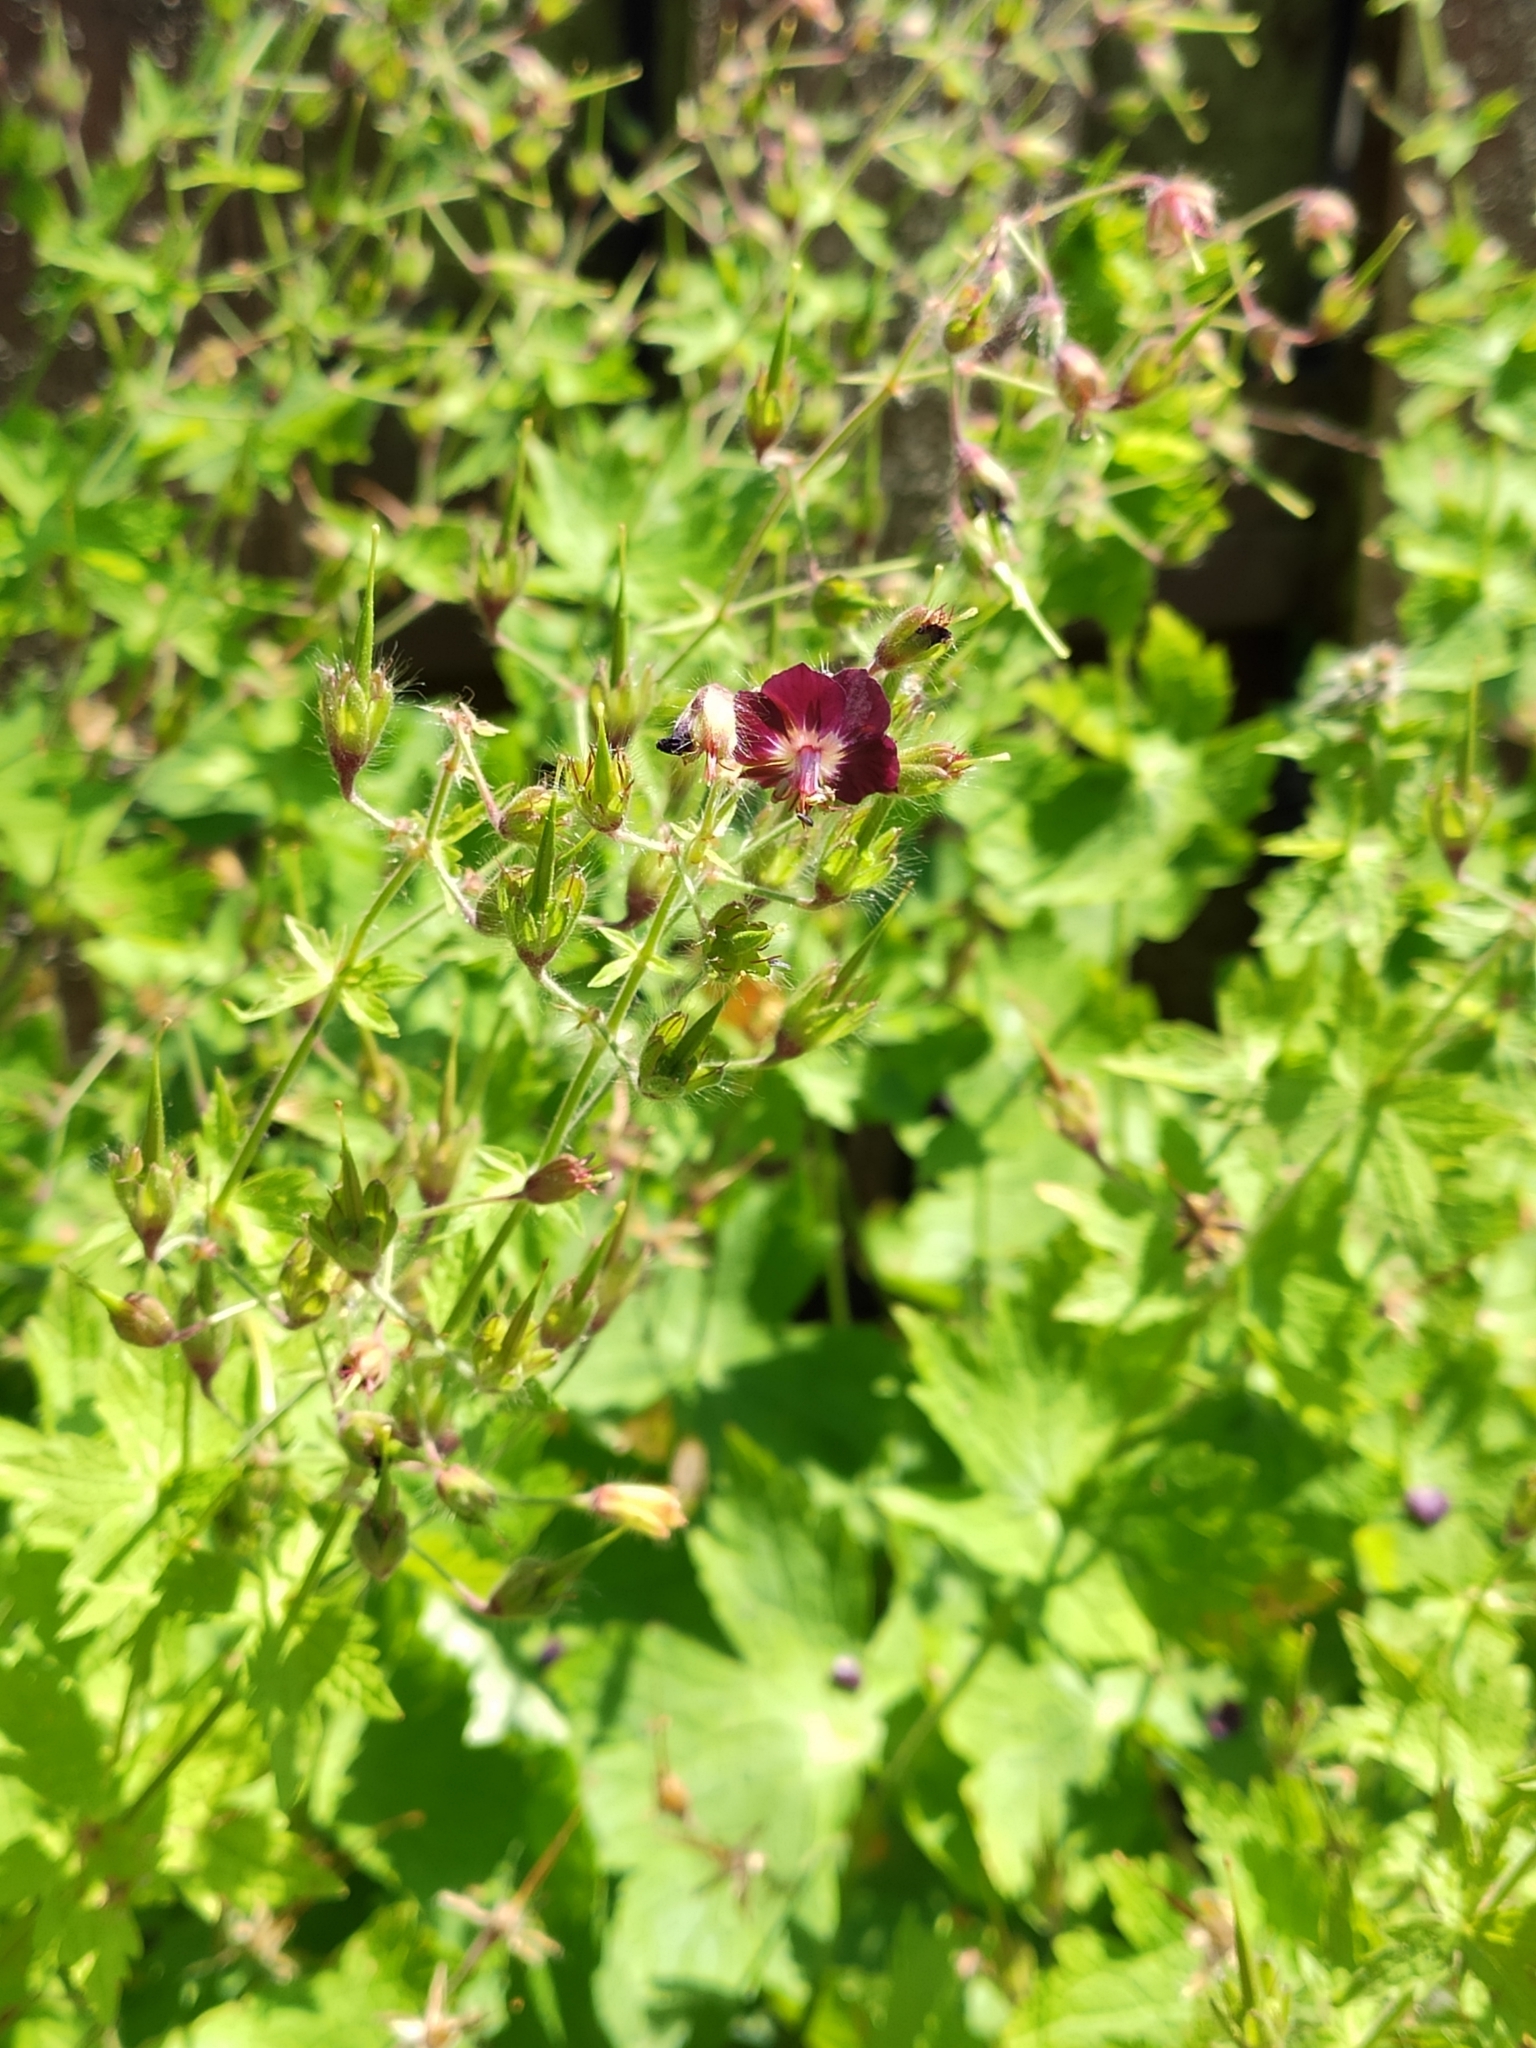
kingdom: Plantae
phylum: Tracheophyta
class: Magnoliopsida
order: Geraniales
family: Geraniaceae
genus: Geranium
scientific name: Geranium phaeum
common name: Dusky crane's-bill
